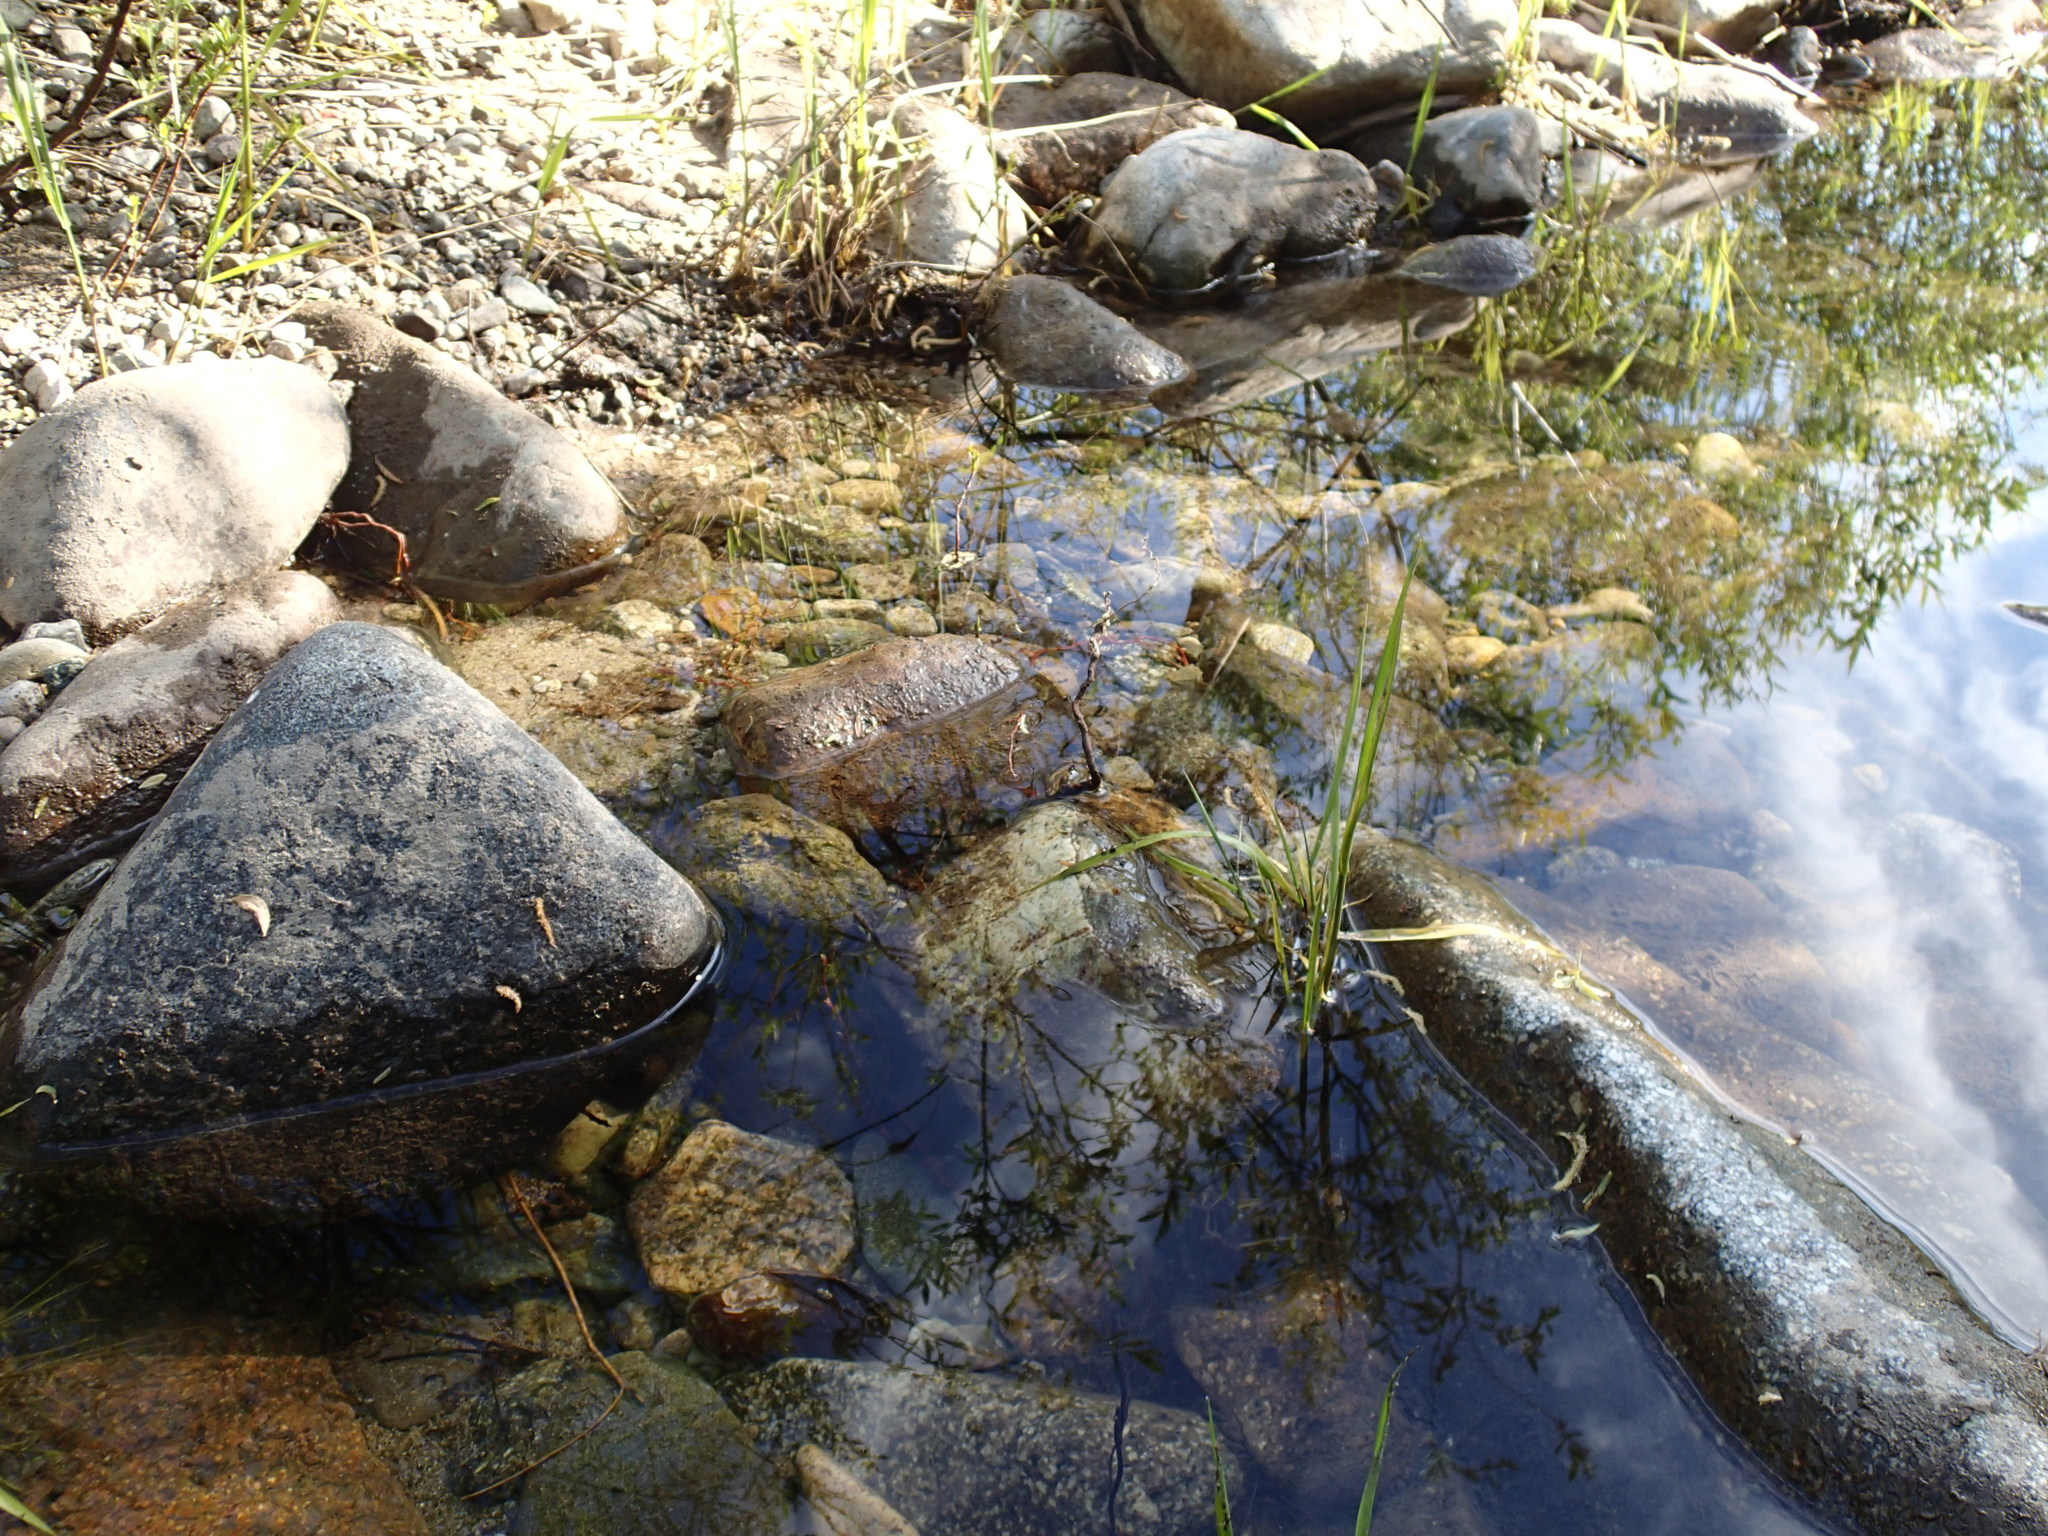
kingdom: Animalia
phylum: Mollusca
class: Bivalvia
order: Unionida
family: Margaritiferidae
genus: Margaritifera
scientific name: Margaritifera falcata
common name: Western pearlshell
